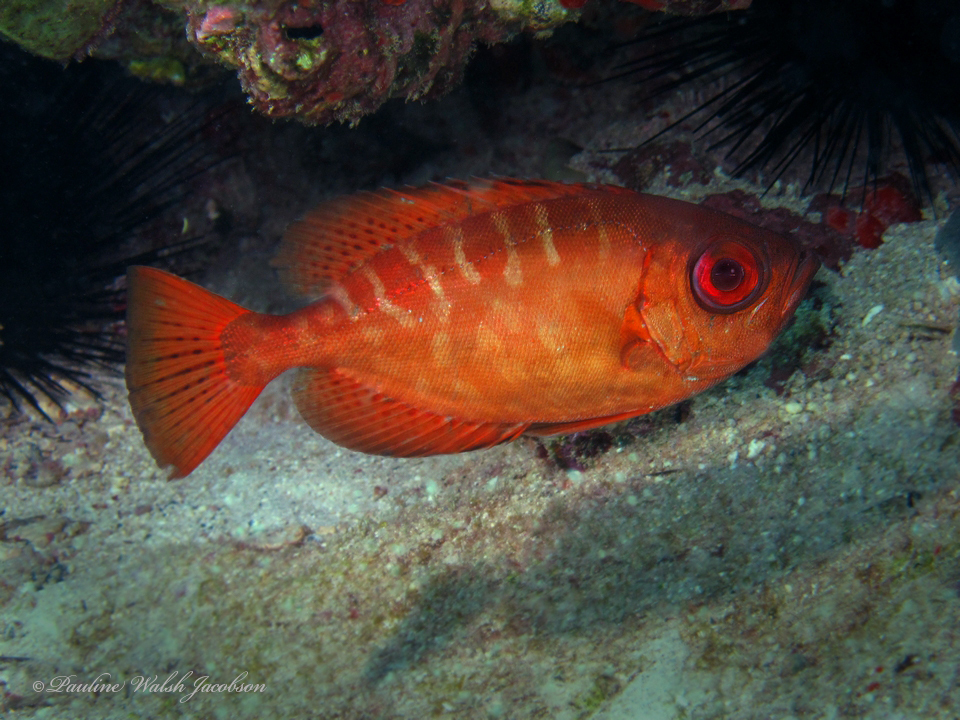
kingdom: Animalia
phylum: Chordata
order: Perciformes
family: Priacanthidae
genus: Heteropriacanthus
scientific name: Heteropriacanthus cruentatus
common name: Glasseye
